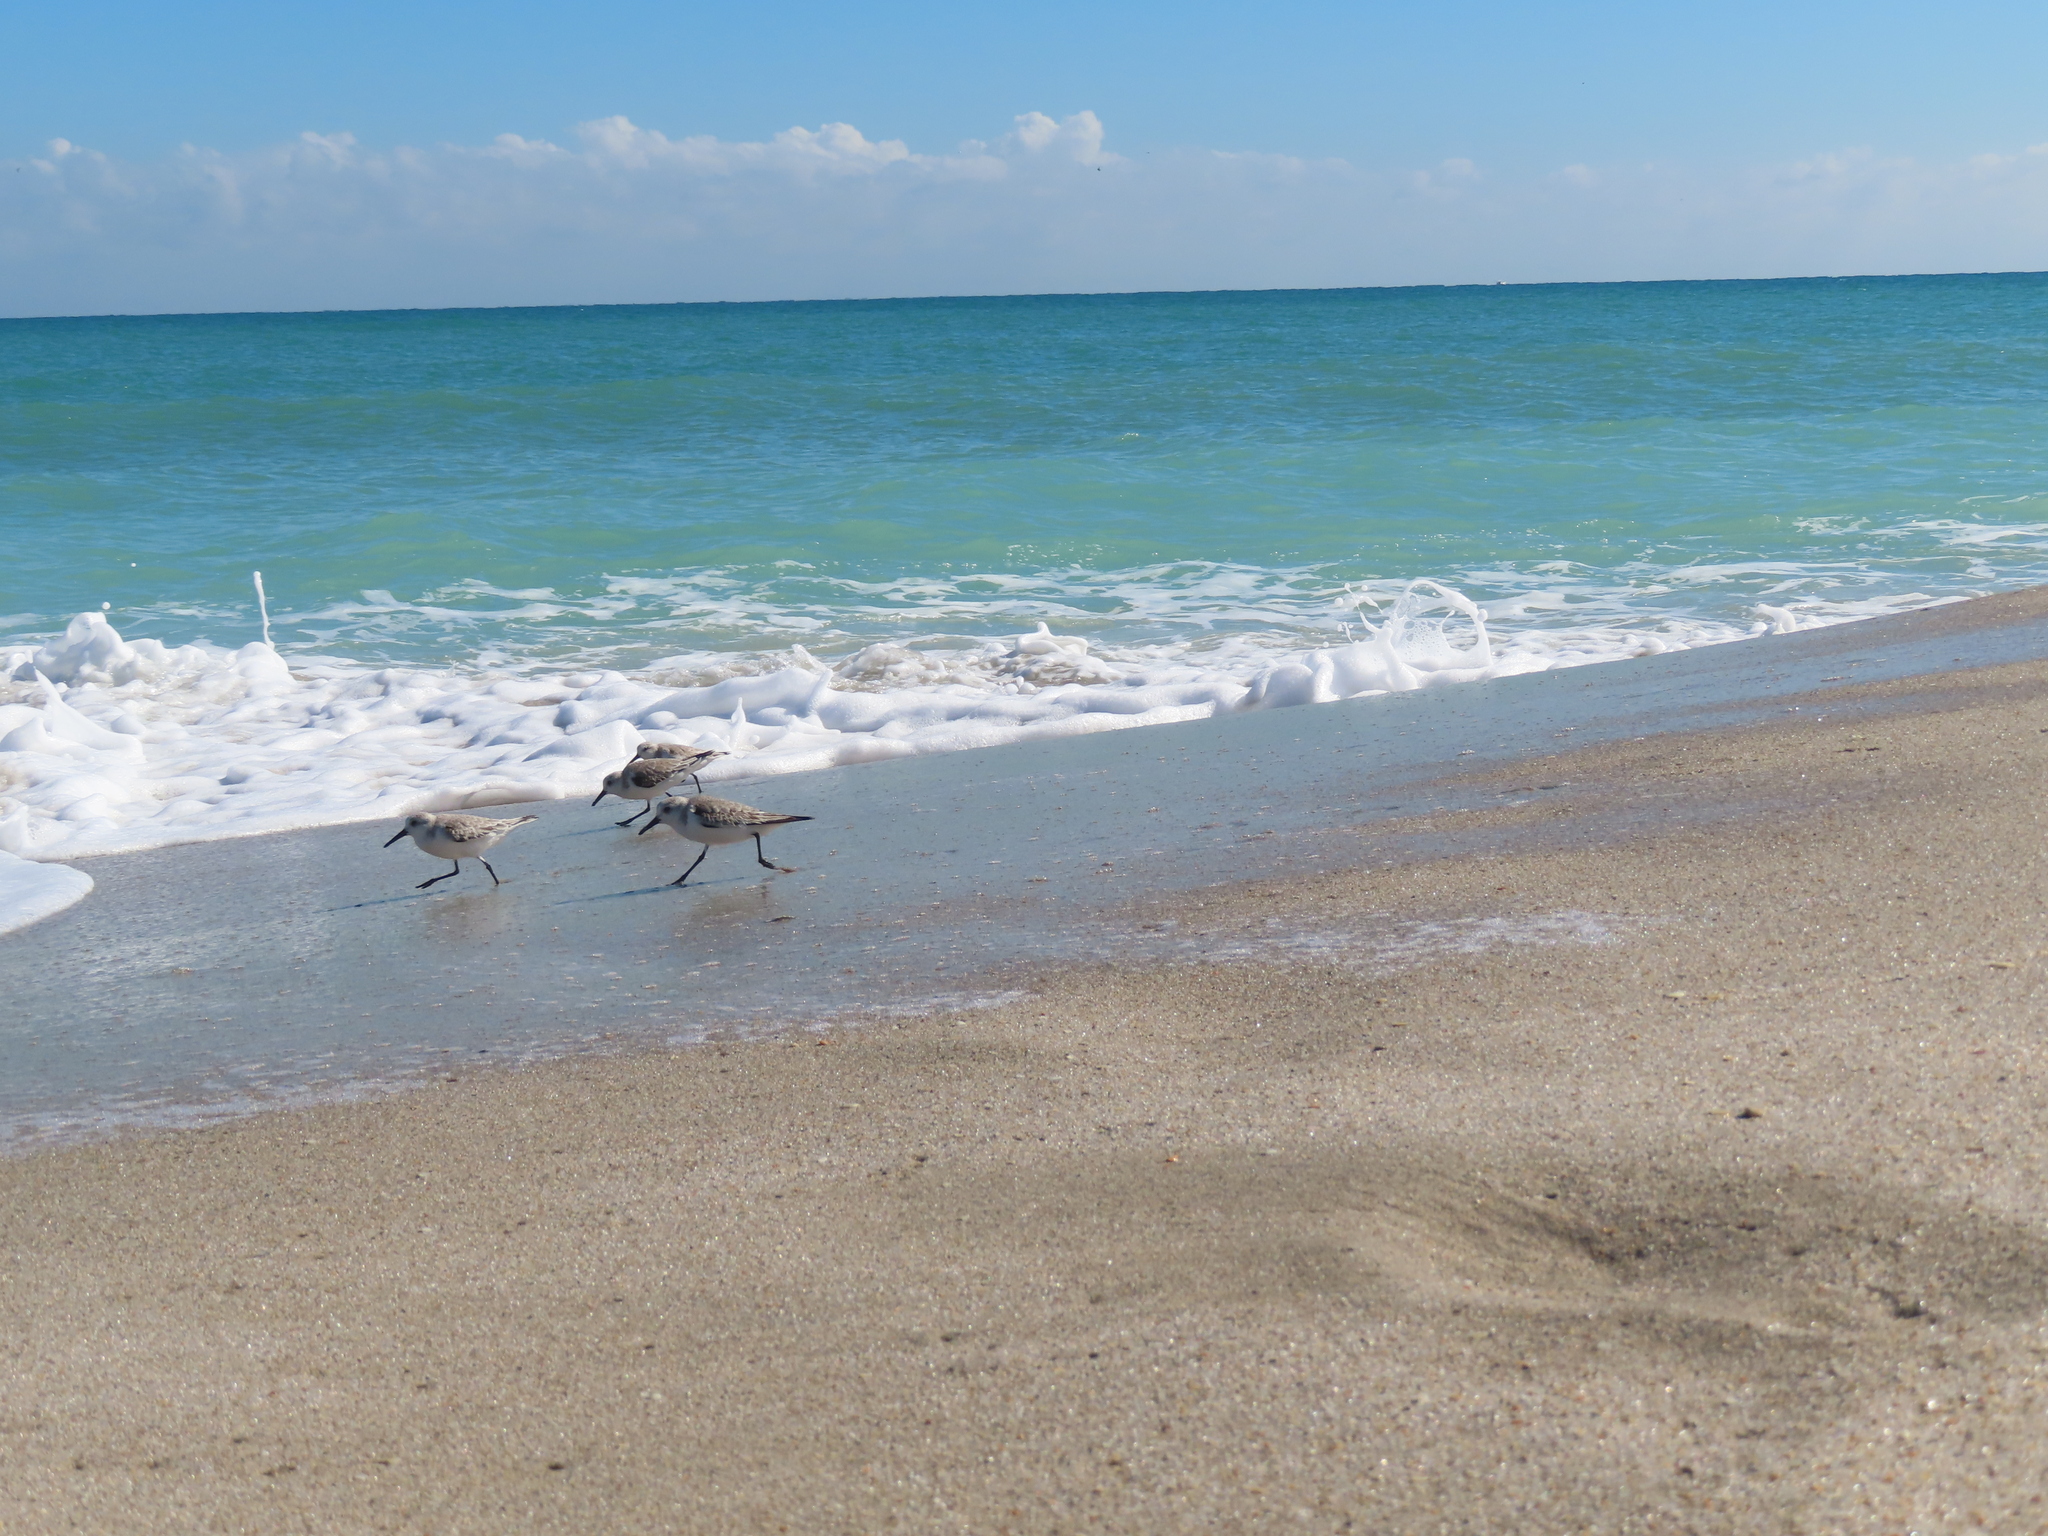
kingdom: Animalia
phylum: Chordata
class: Aves
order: Charadriiformes
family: Scolopacidae
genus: Calidris
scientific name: Calidris alba
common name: Sanderling
